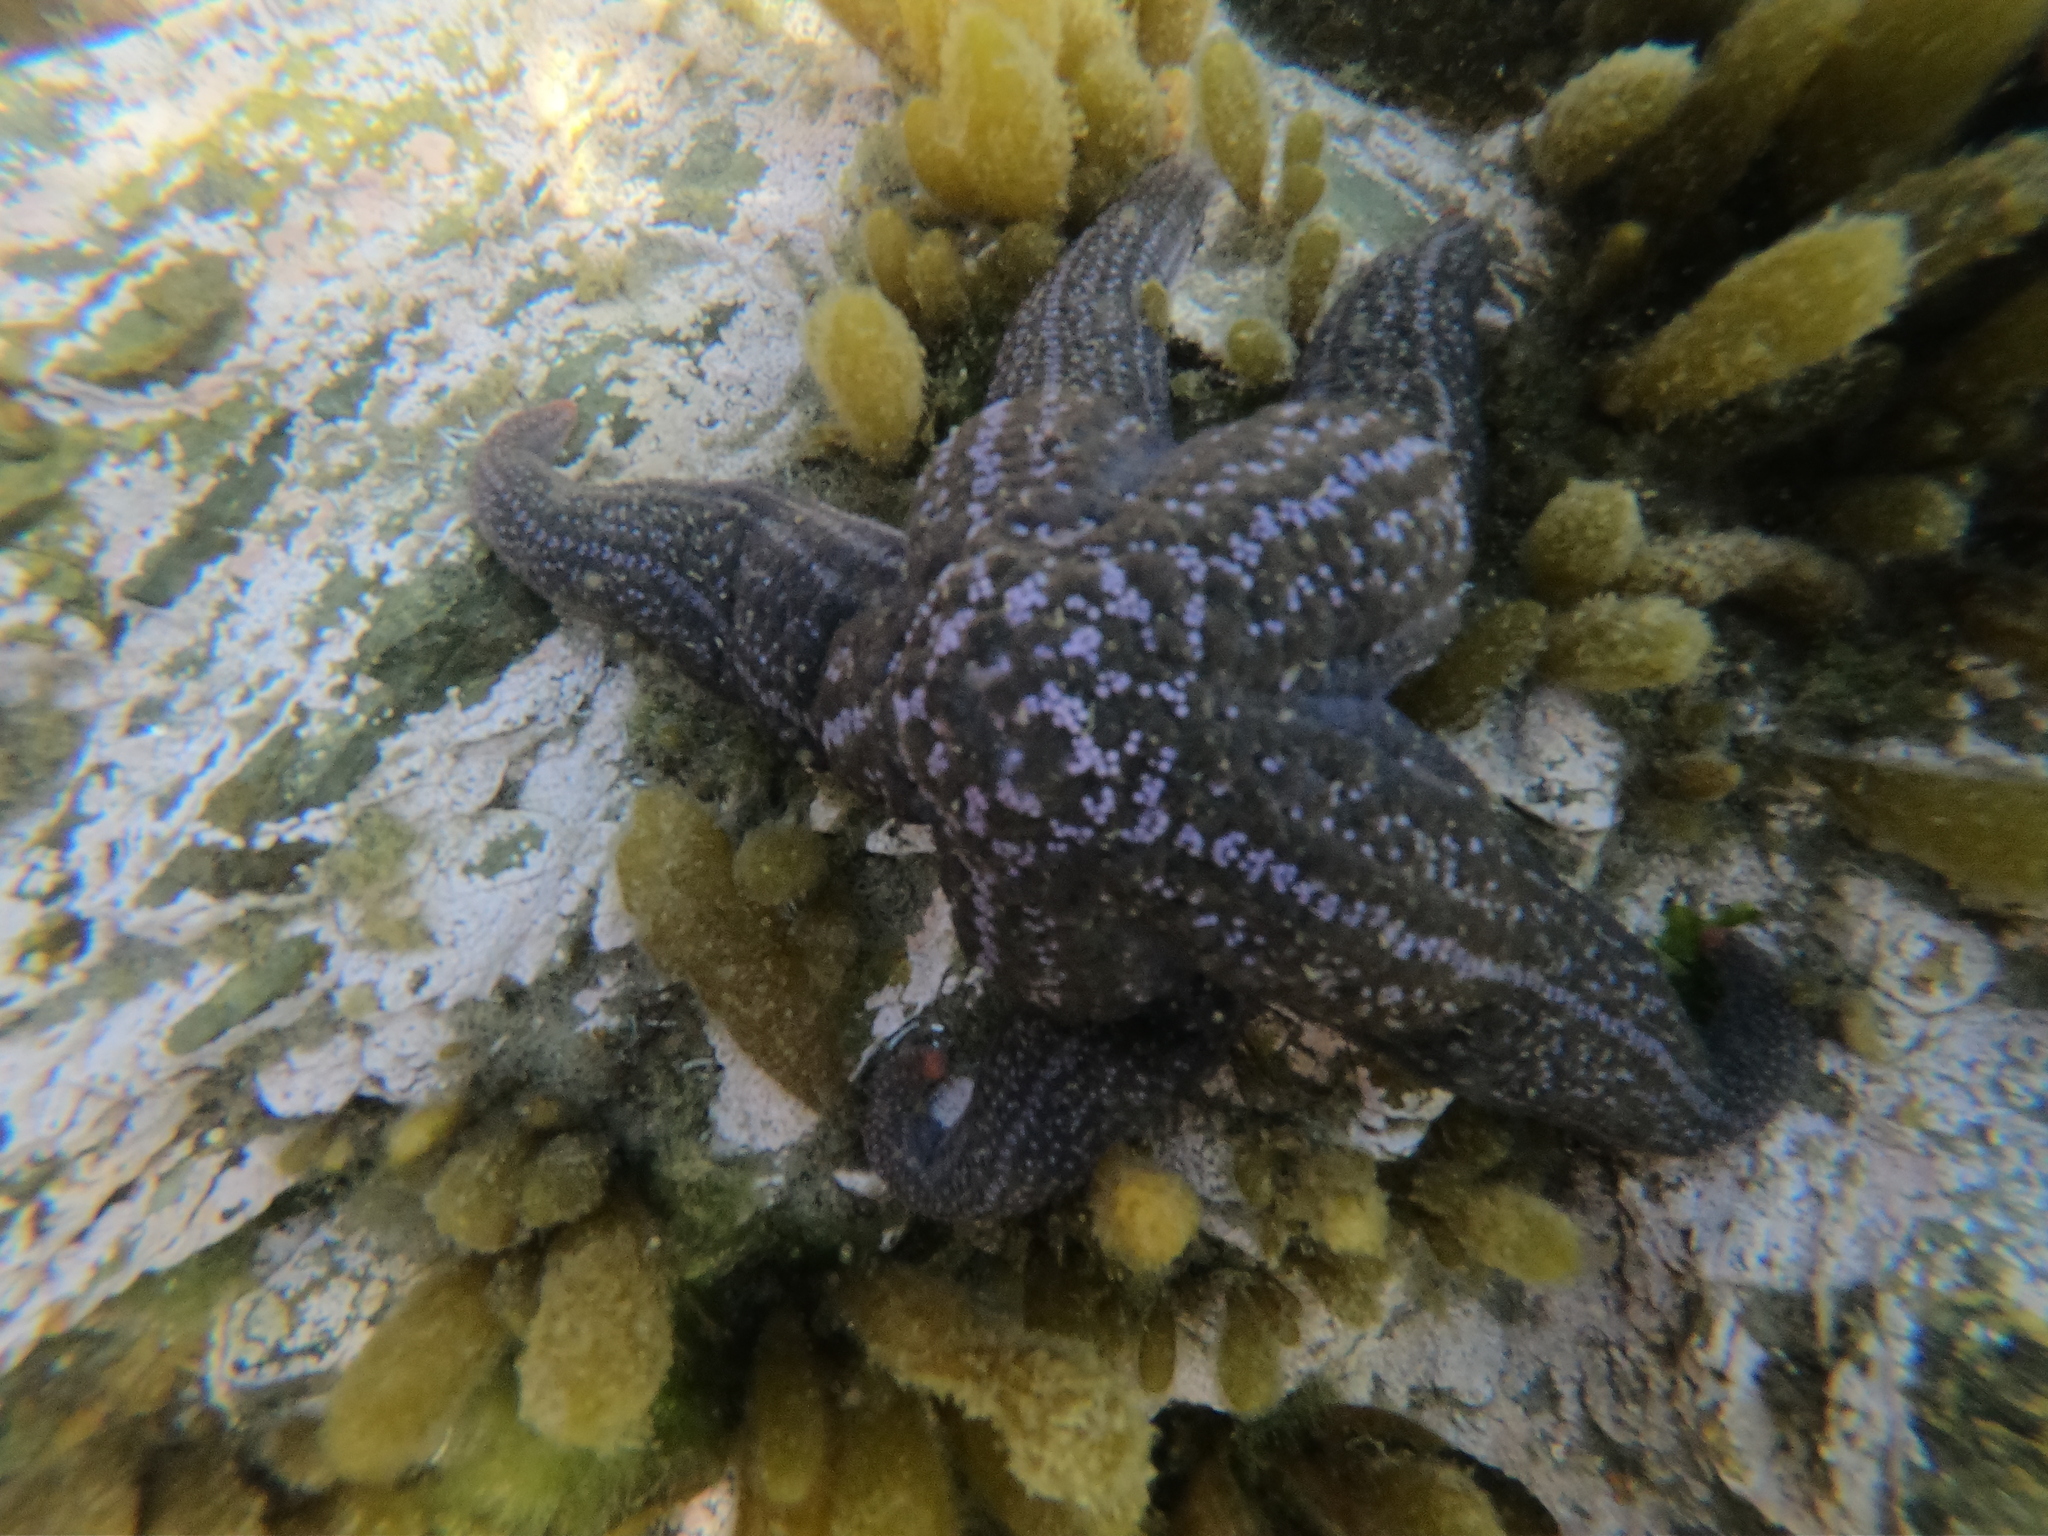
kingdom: Animalia
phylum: Echinodermata
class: Asteroidea
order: Forcipulatida
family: Stichasteridae
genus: Cosmasterias
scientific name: Cosmasterias lurida
